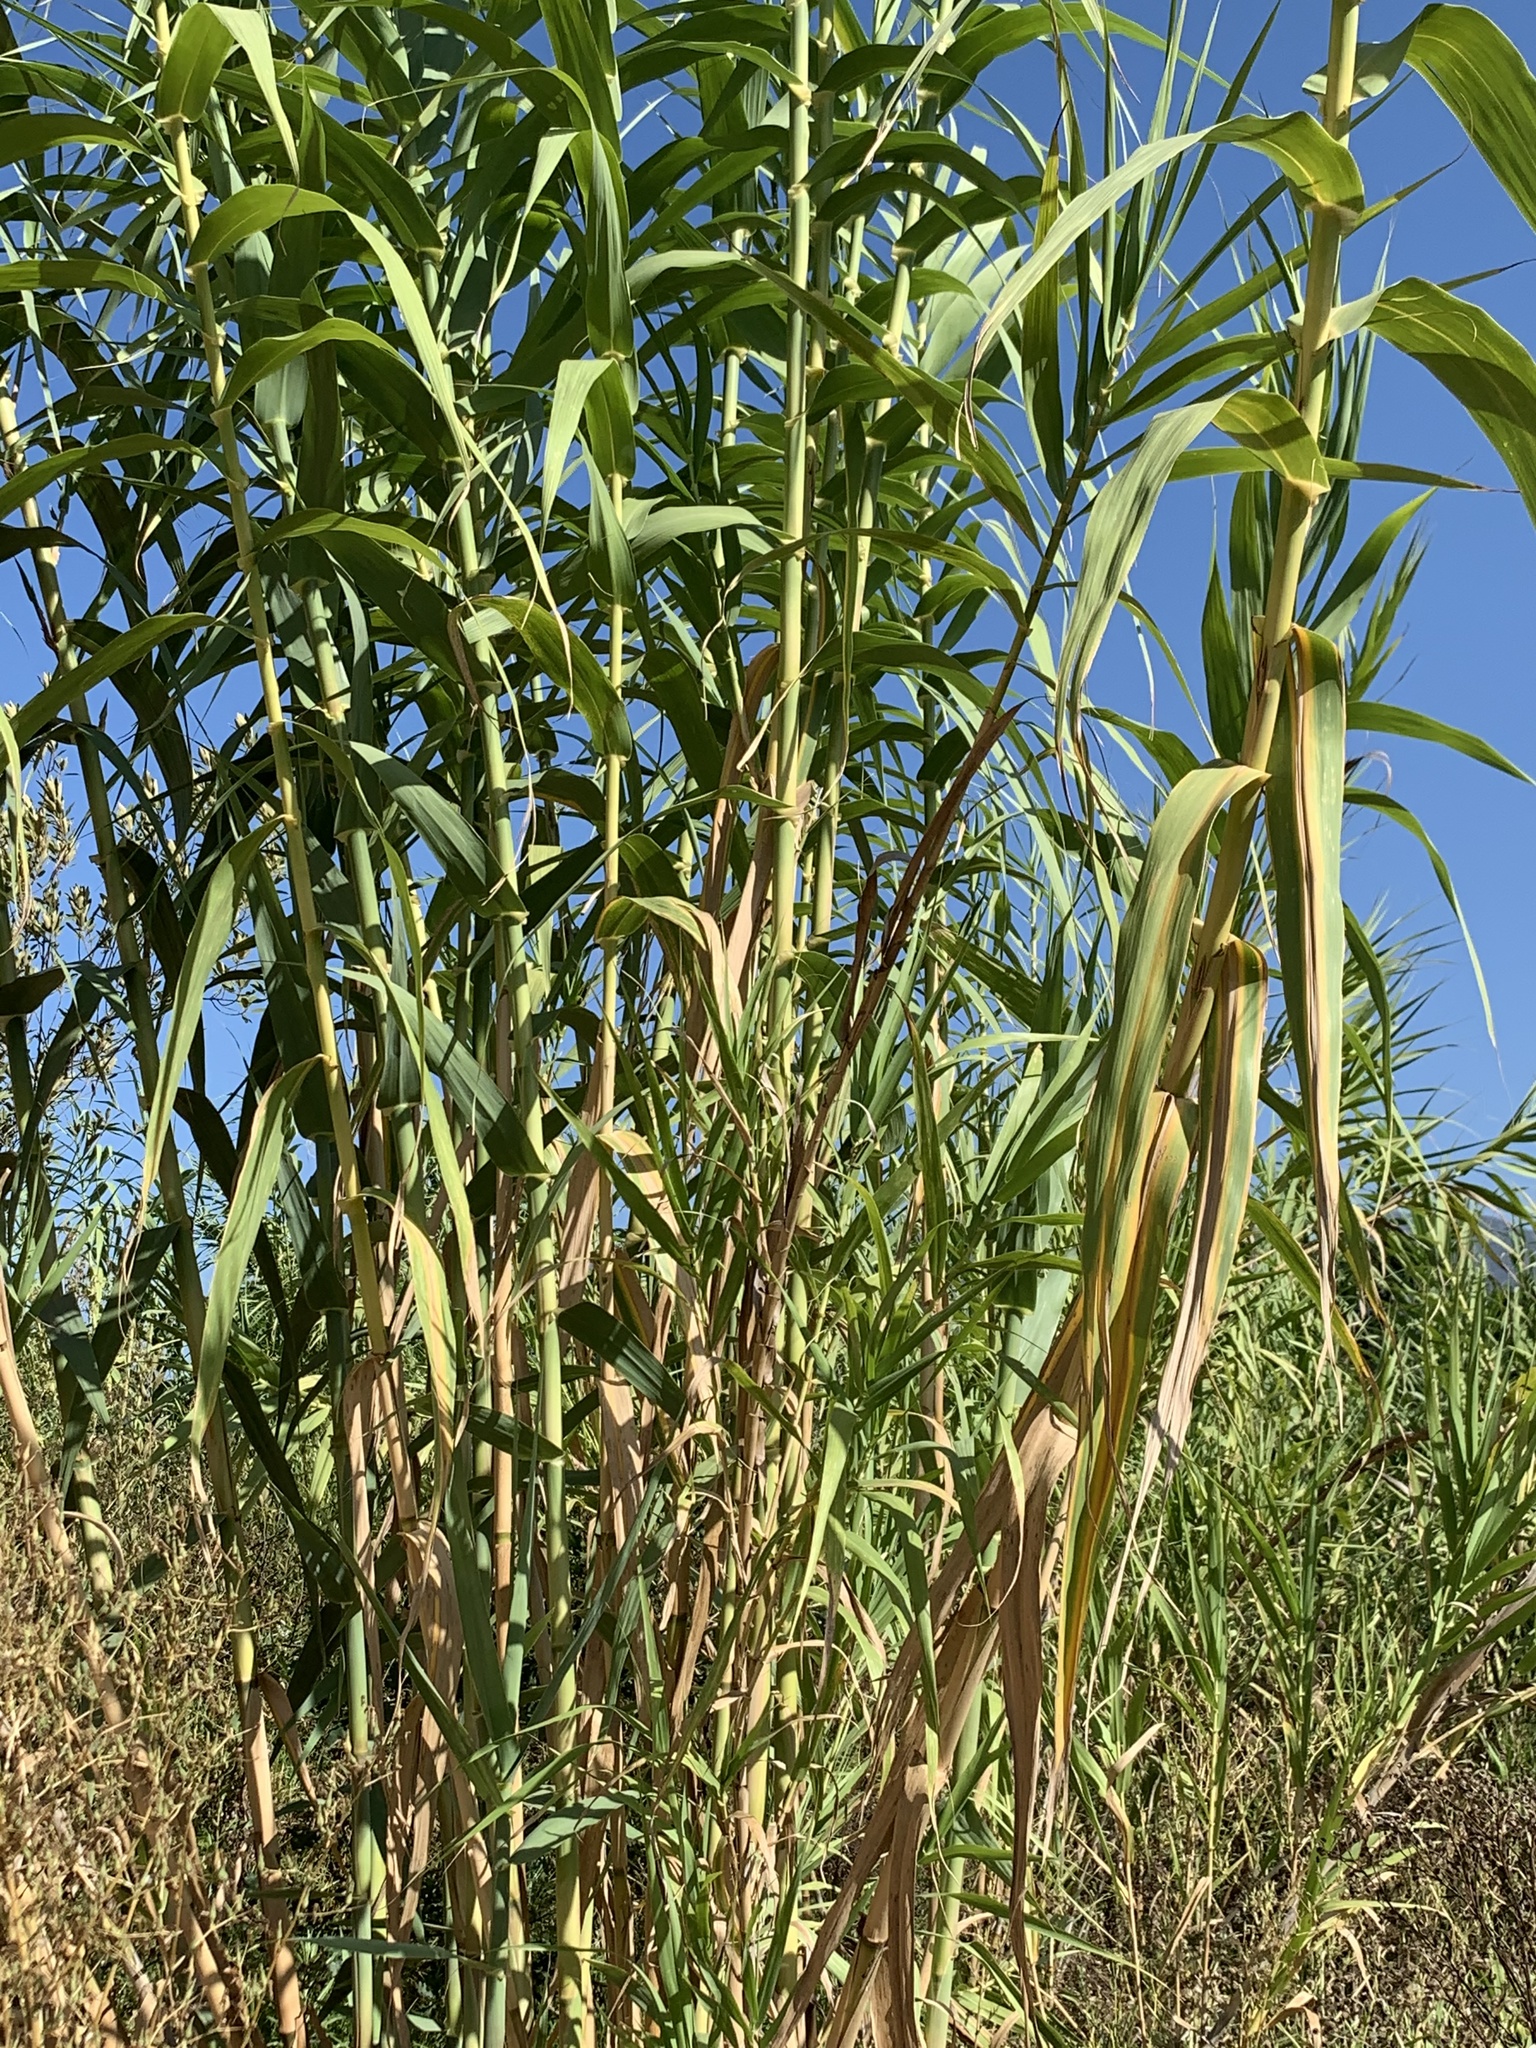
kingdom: Plantae
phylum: Tracheophyta
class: Liliopsida
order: Poales
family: Poaceae
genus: Arundo
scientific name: Arundo donax
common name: Giant reed
